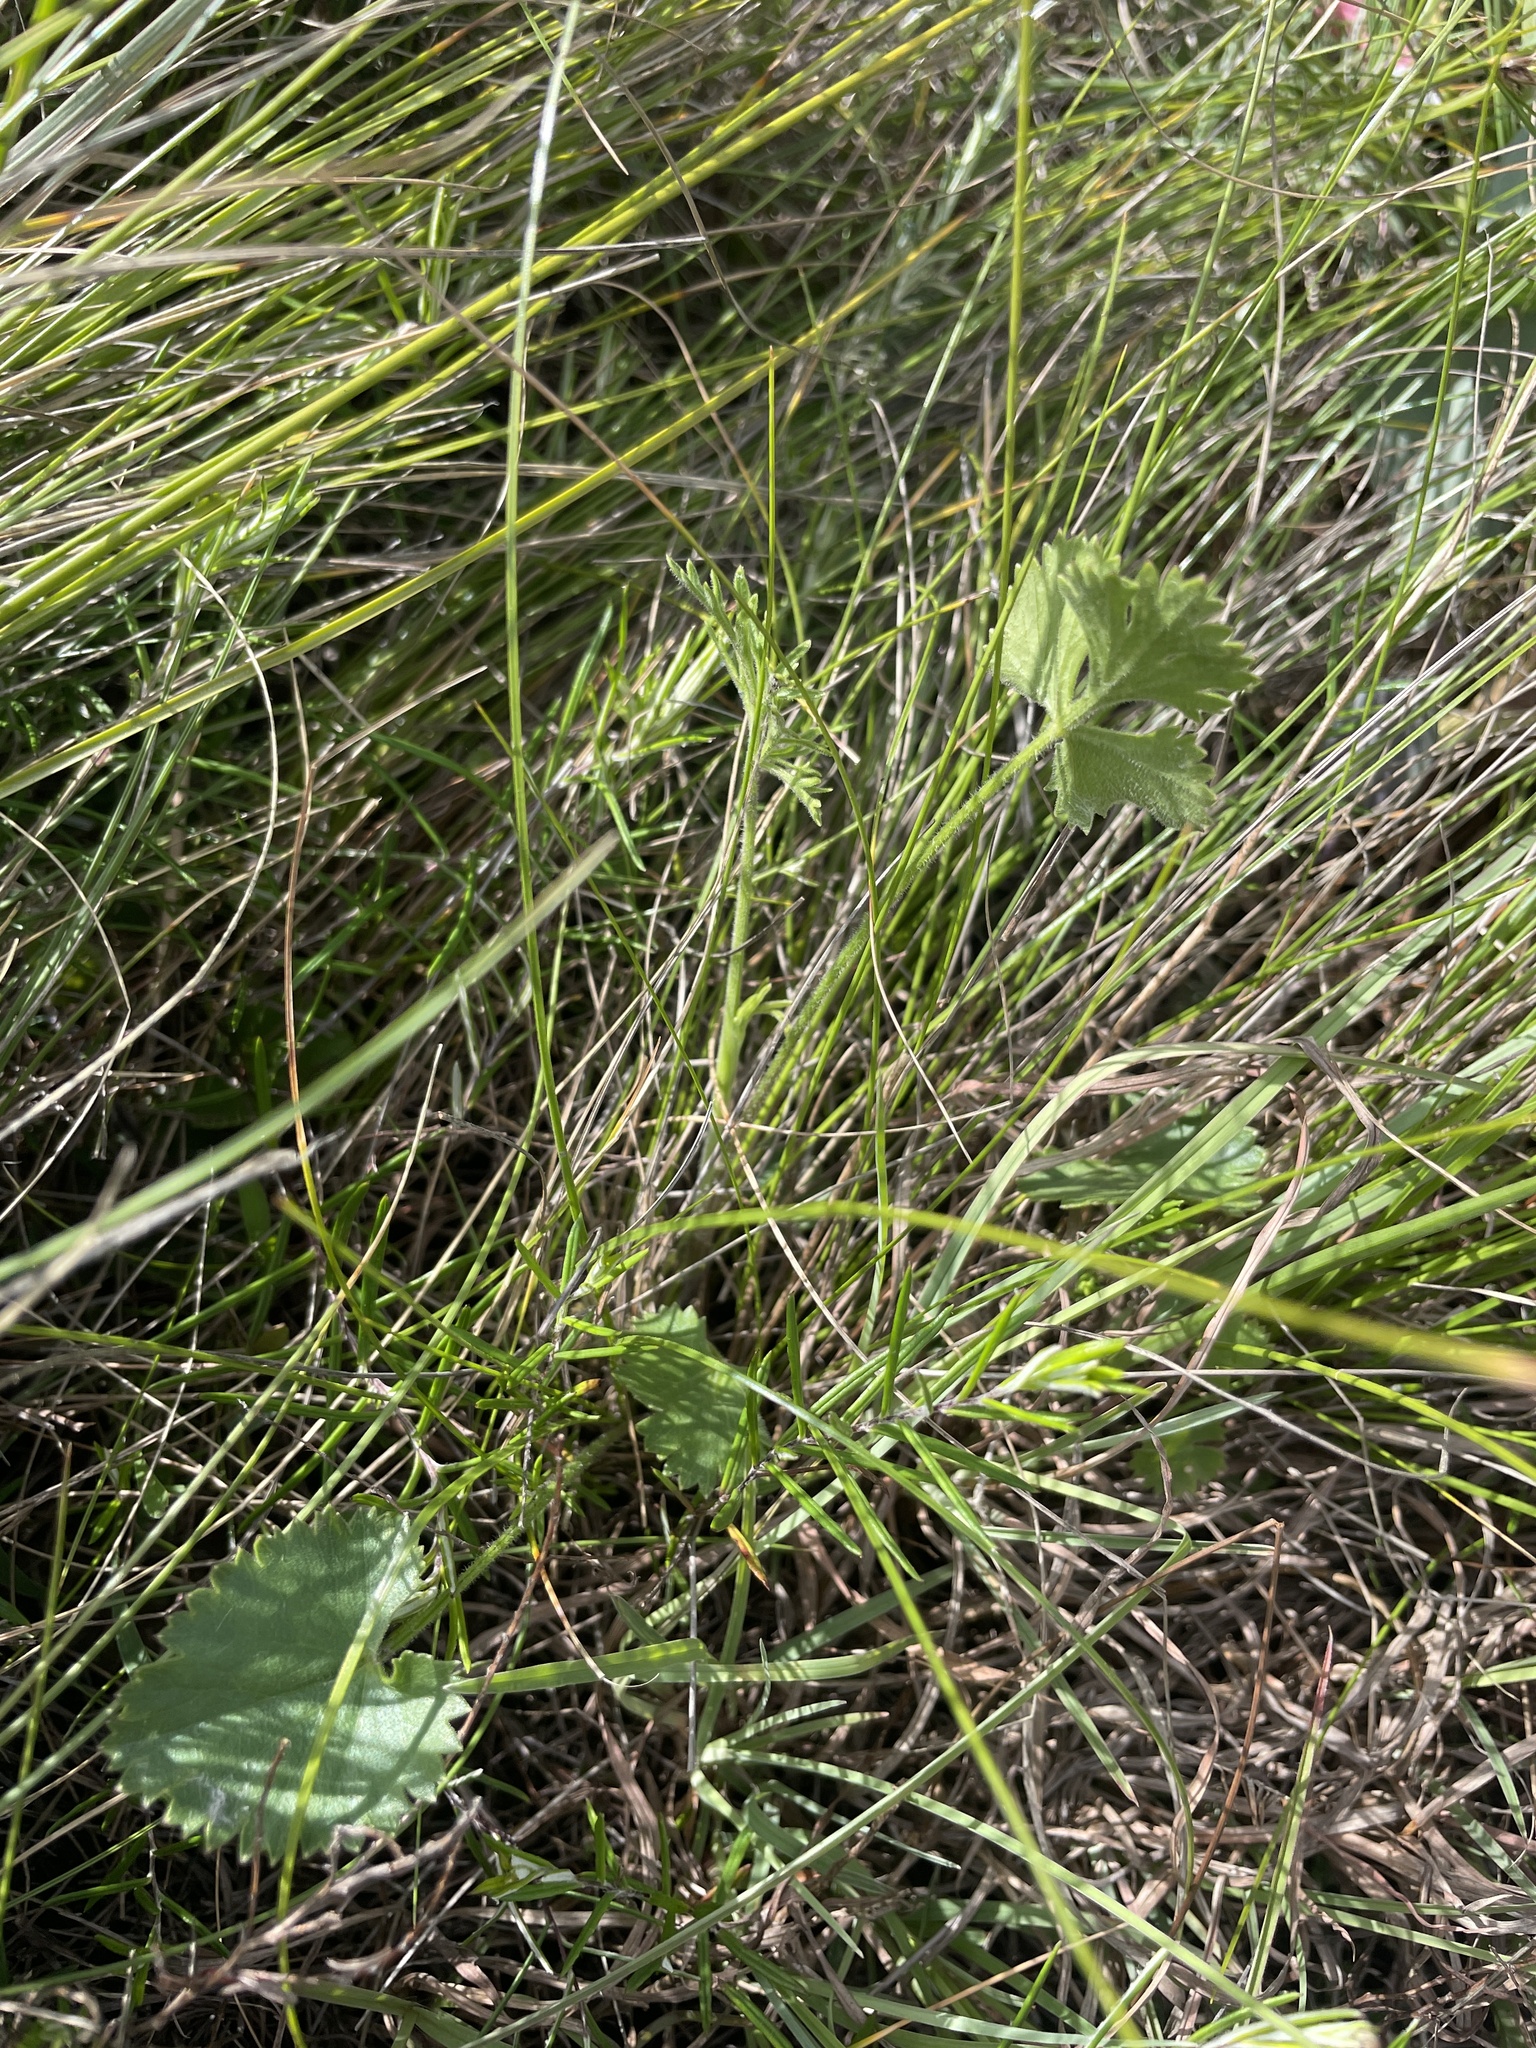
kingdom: Plantae
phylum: Tracheophyta
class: Magnoliopsida
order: Apiales
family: Apiaceae
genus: Pimpinella
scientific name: Pimpinella caffra
